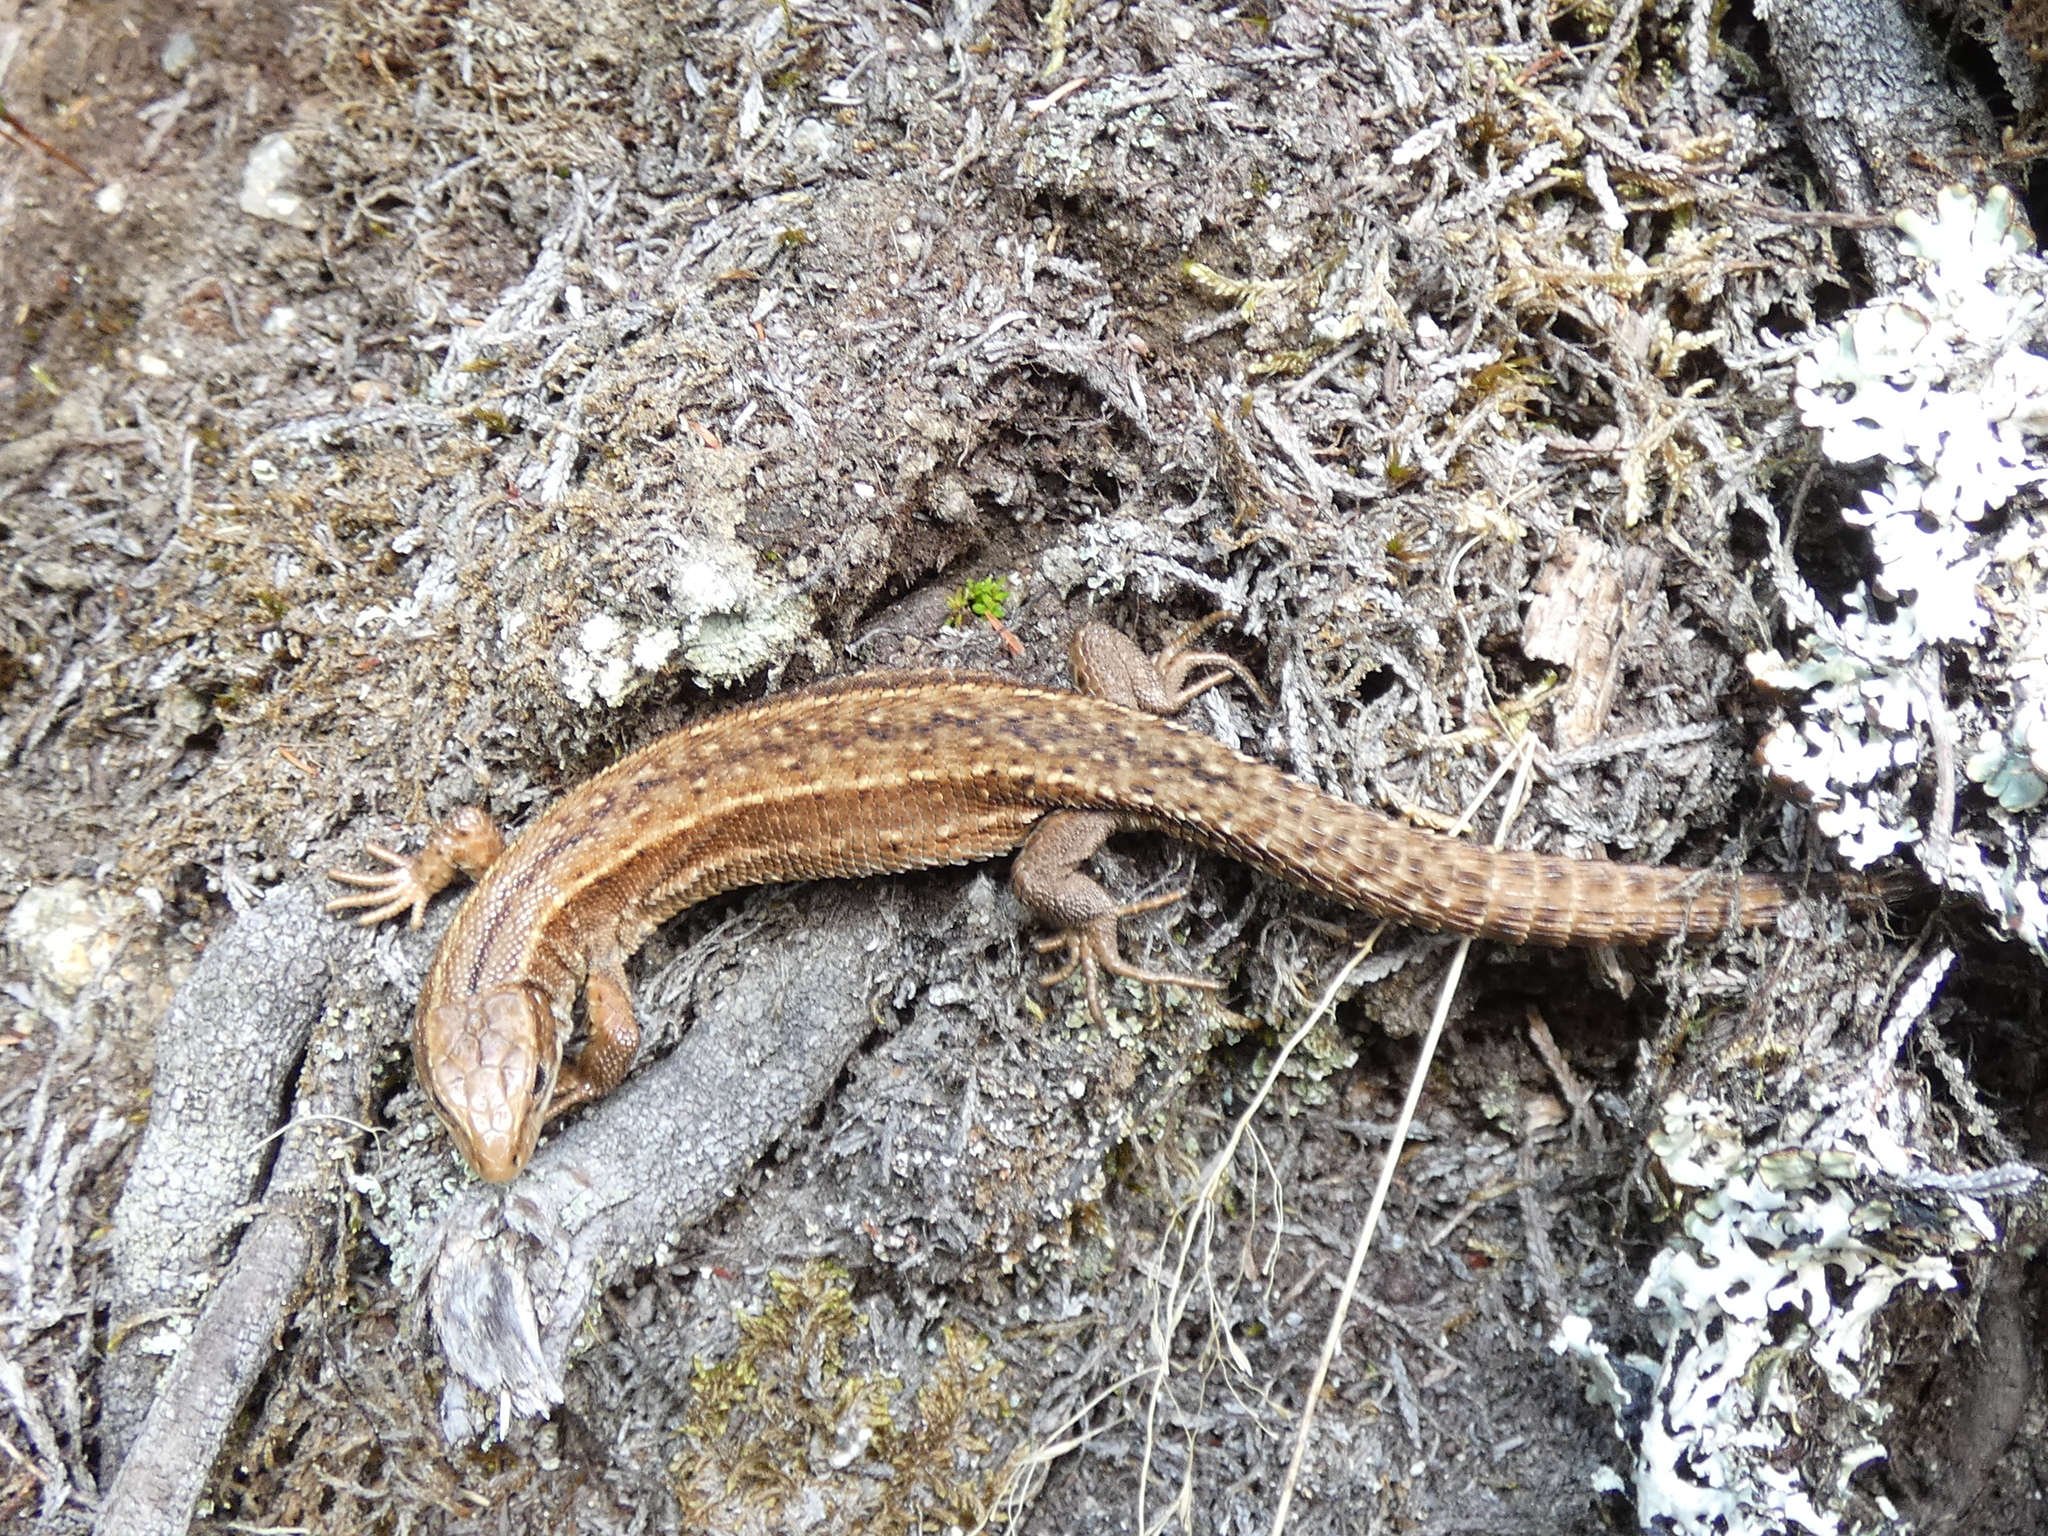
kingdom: Animalia
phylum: Chordata
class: Squamata
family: Lacertidae
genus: Zootoca
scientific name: Zootoca vivipara
